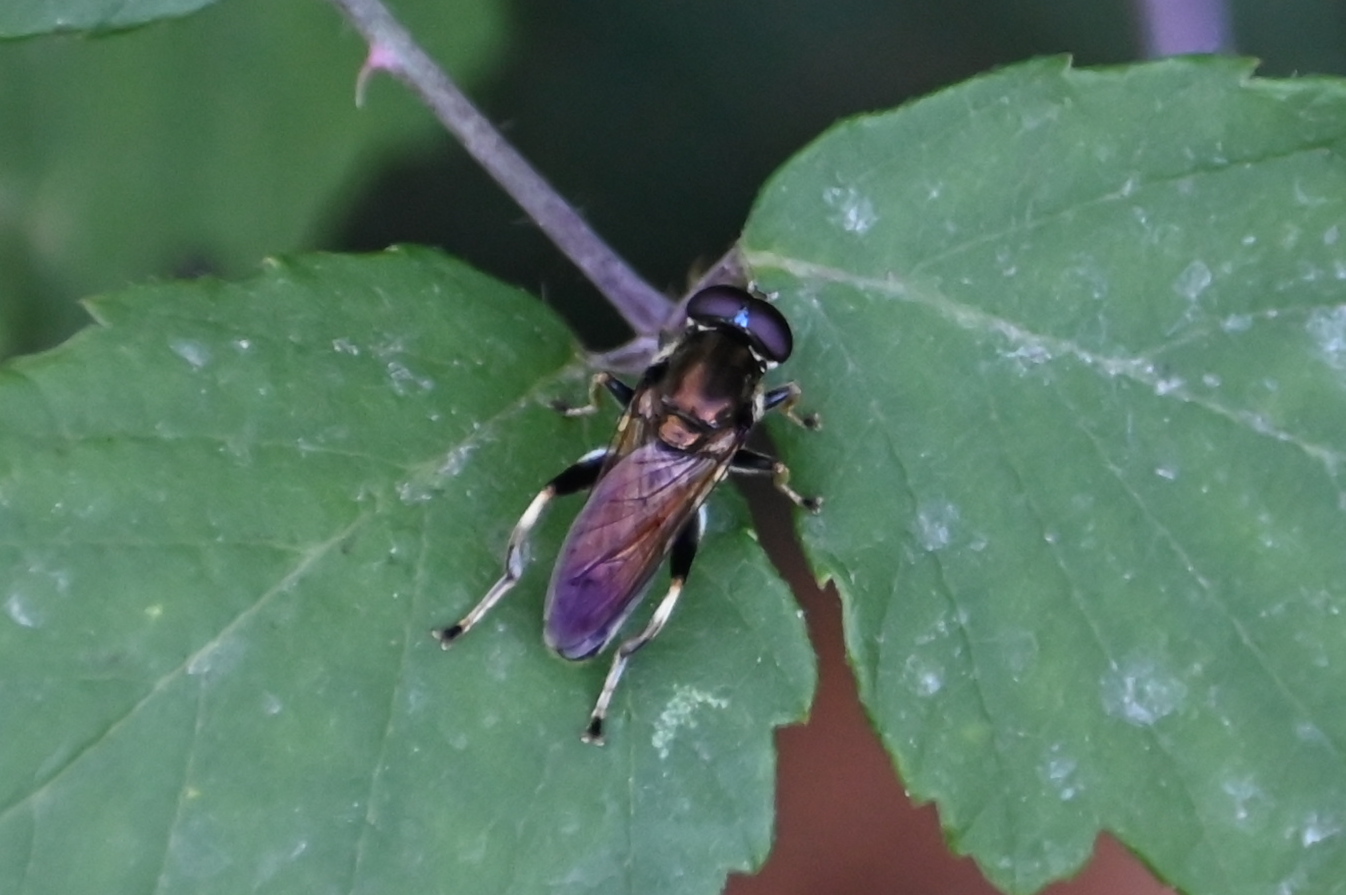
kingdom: Animalia
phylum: Arthropoda
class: Insecta
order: Diptera
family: Syrphidae
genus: Xylota
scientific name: Xylota segnis
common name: Brown-toed forest fly
